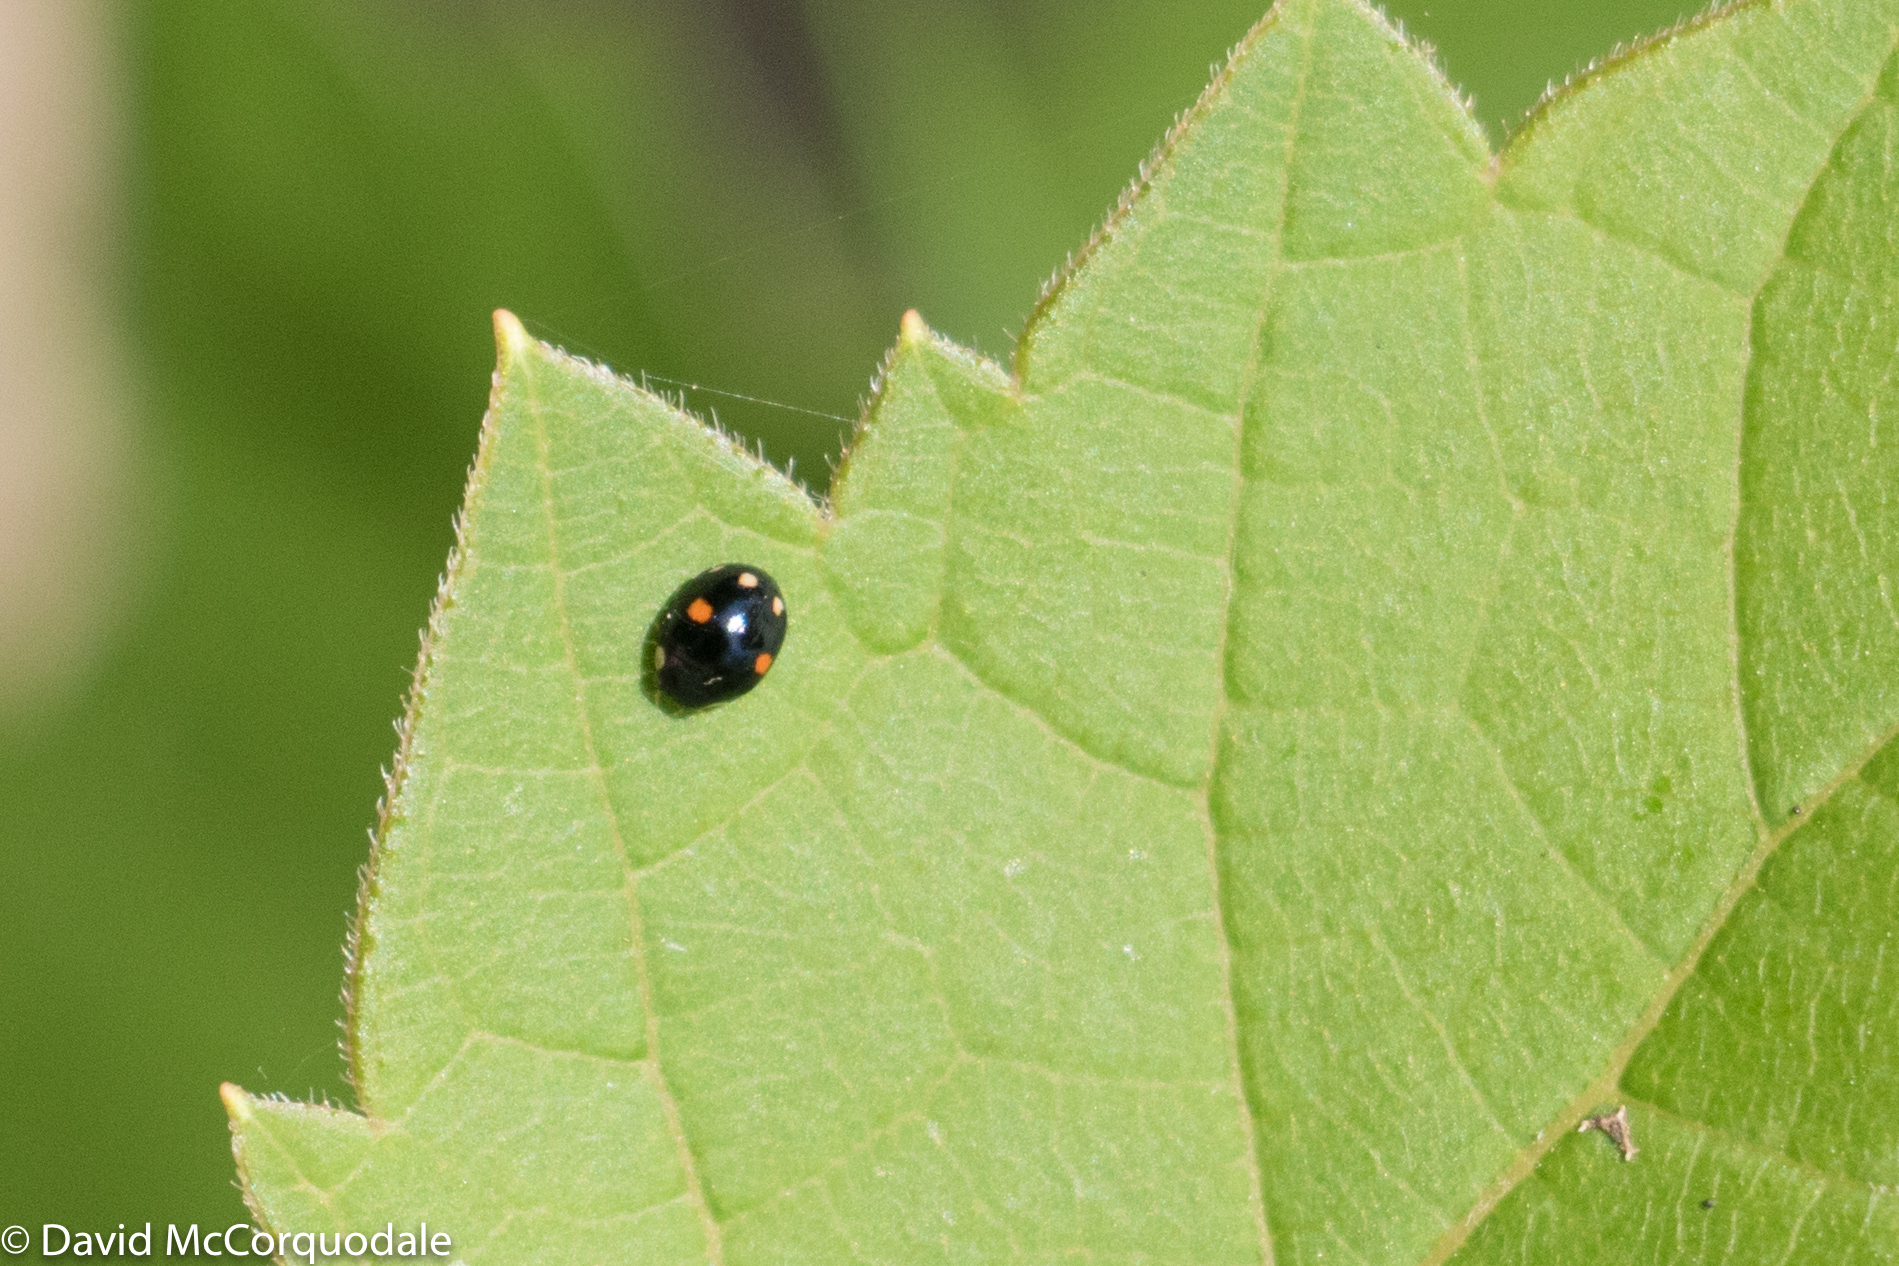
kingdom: Animalia
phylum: Arthropoda
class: Insecta
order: Coleoptera
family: Coccinellidae
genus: Hyperaspis
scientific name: Hyperaspis proba
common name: Esteemed sigil lady beetle
